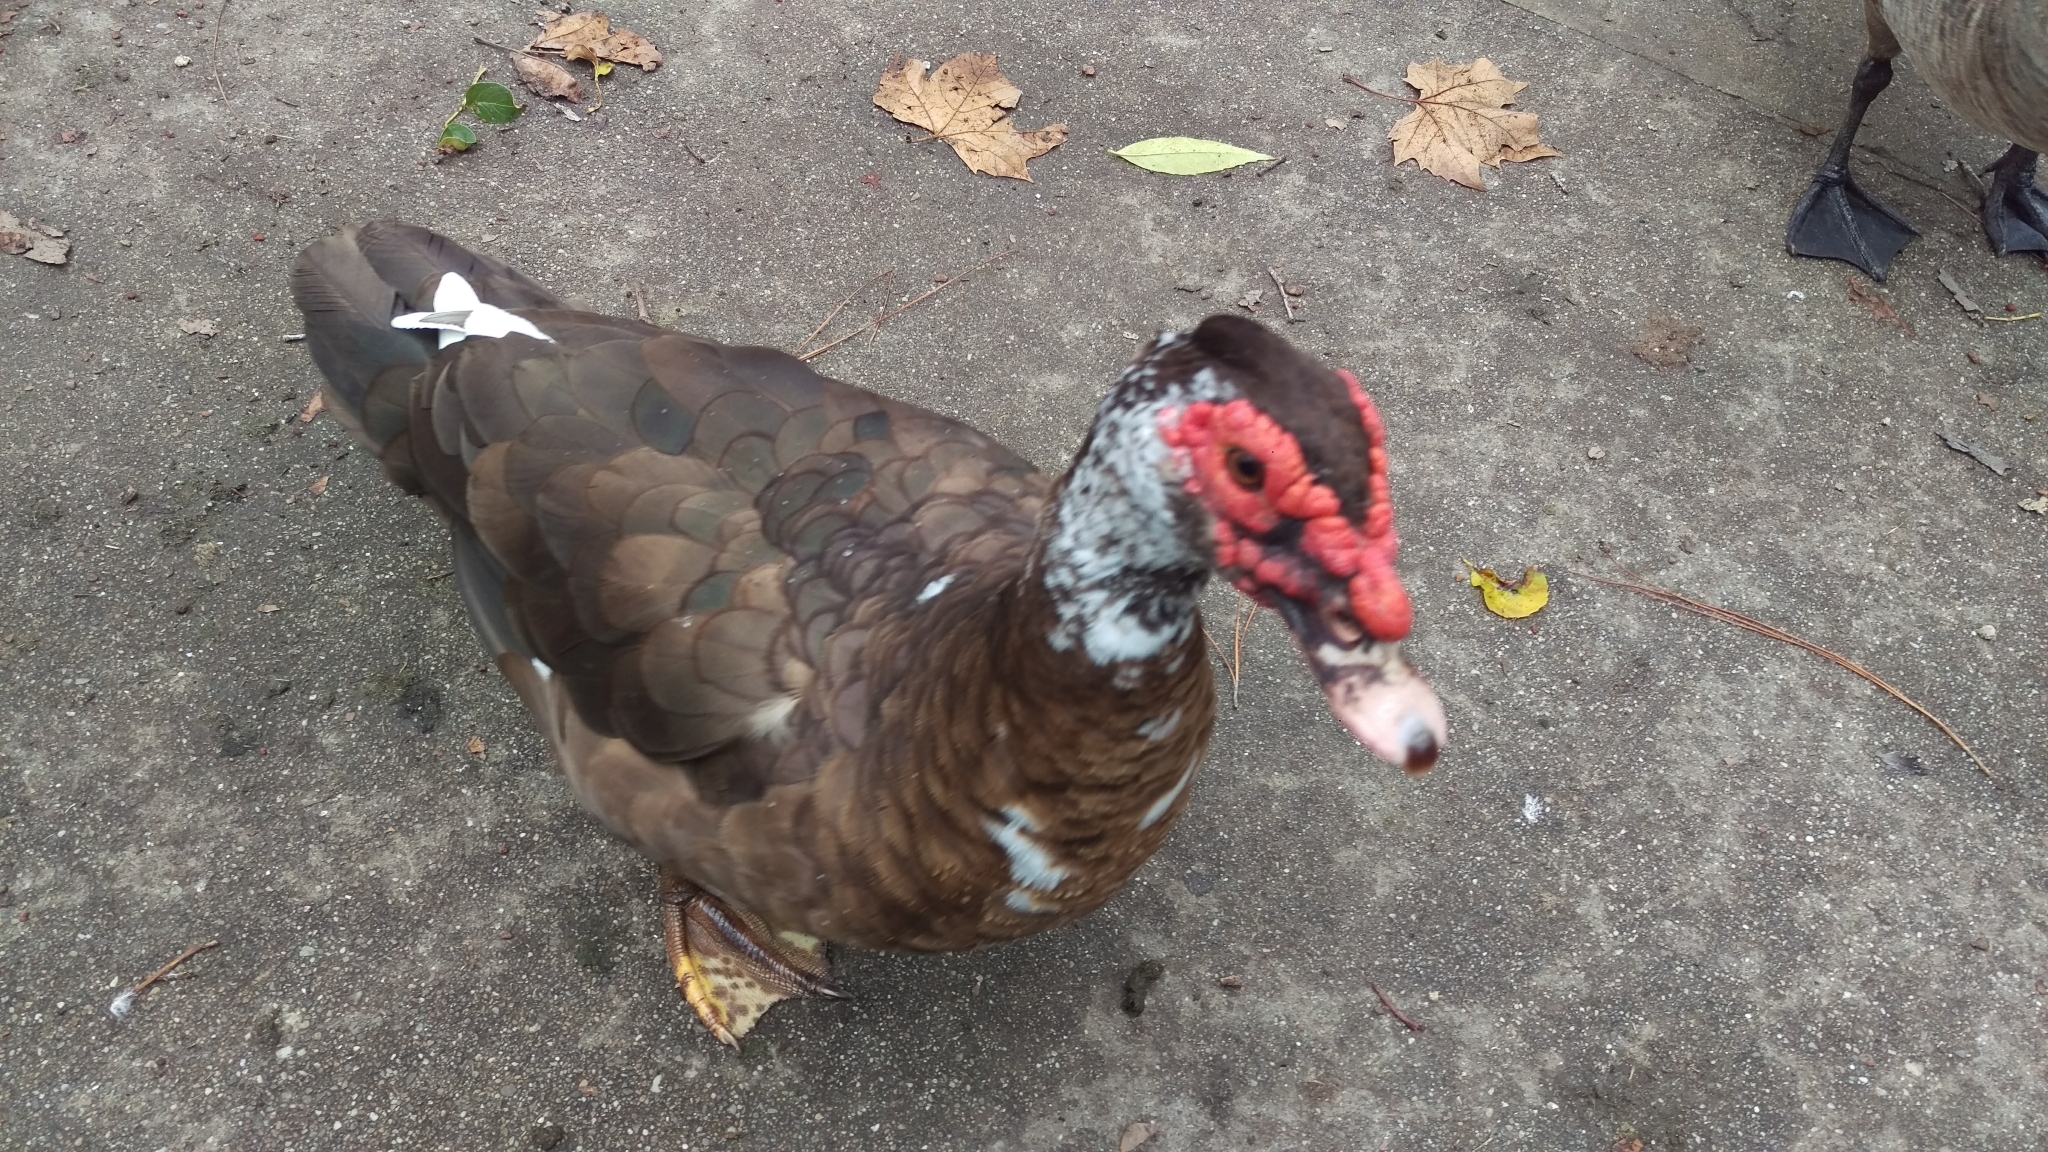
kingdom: Animalia
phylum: Chordata
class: Aves
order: Anseriformes
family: Anatidae
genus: Cairina
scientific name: Cairina moschata
